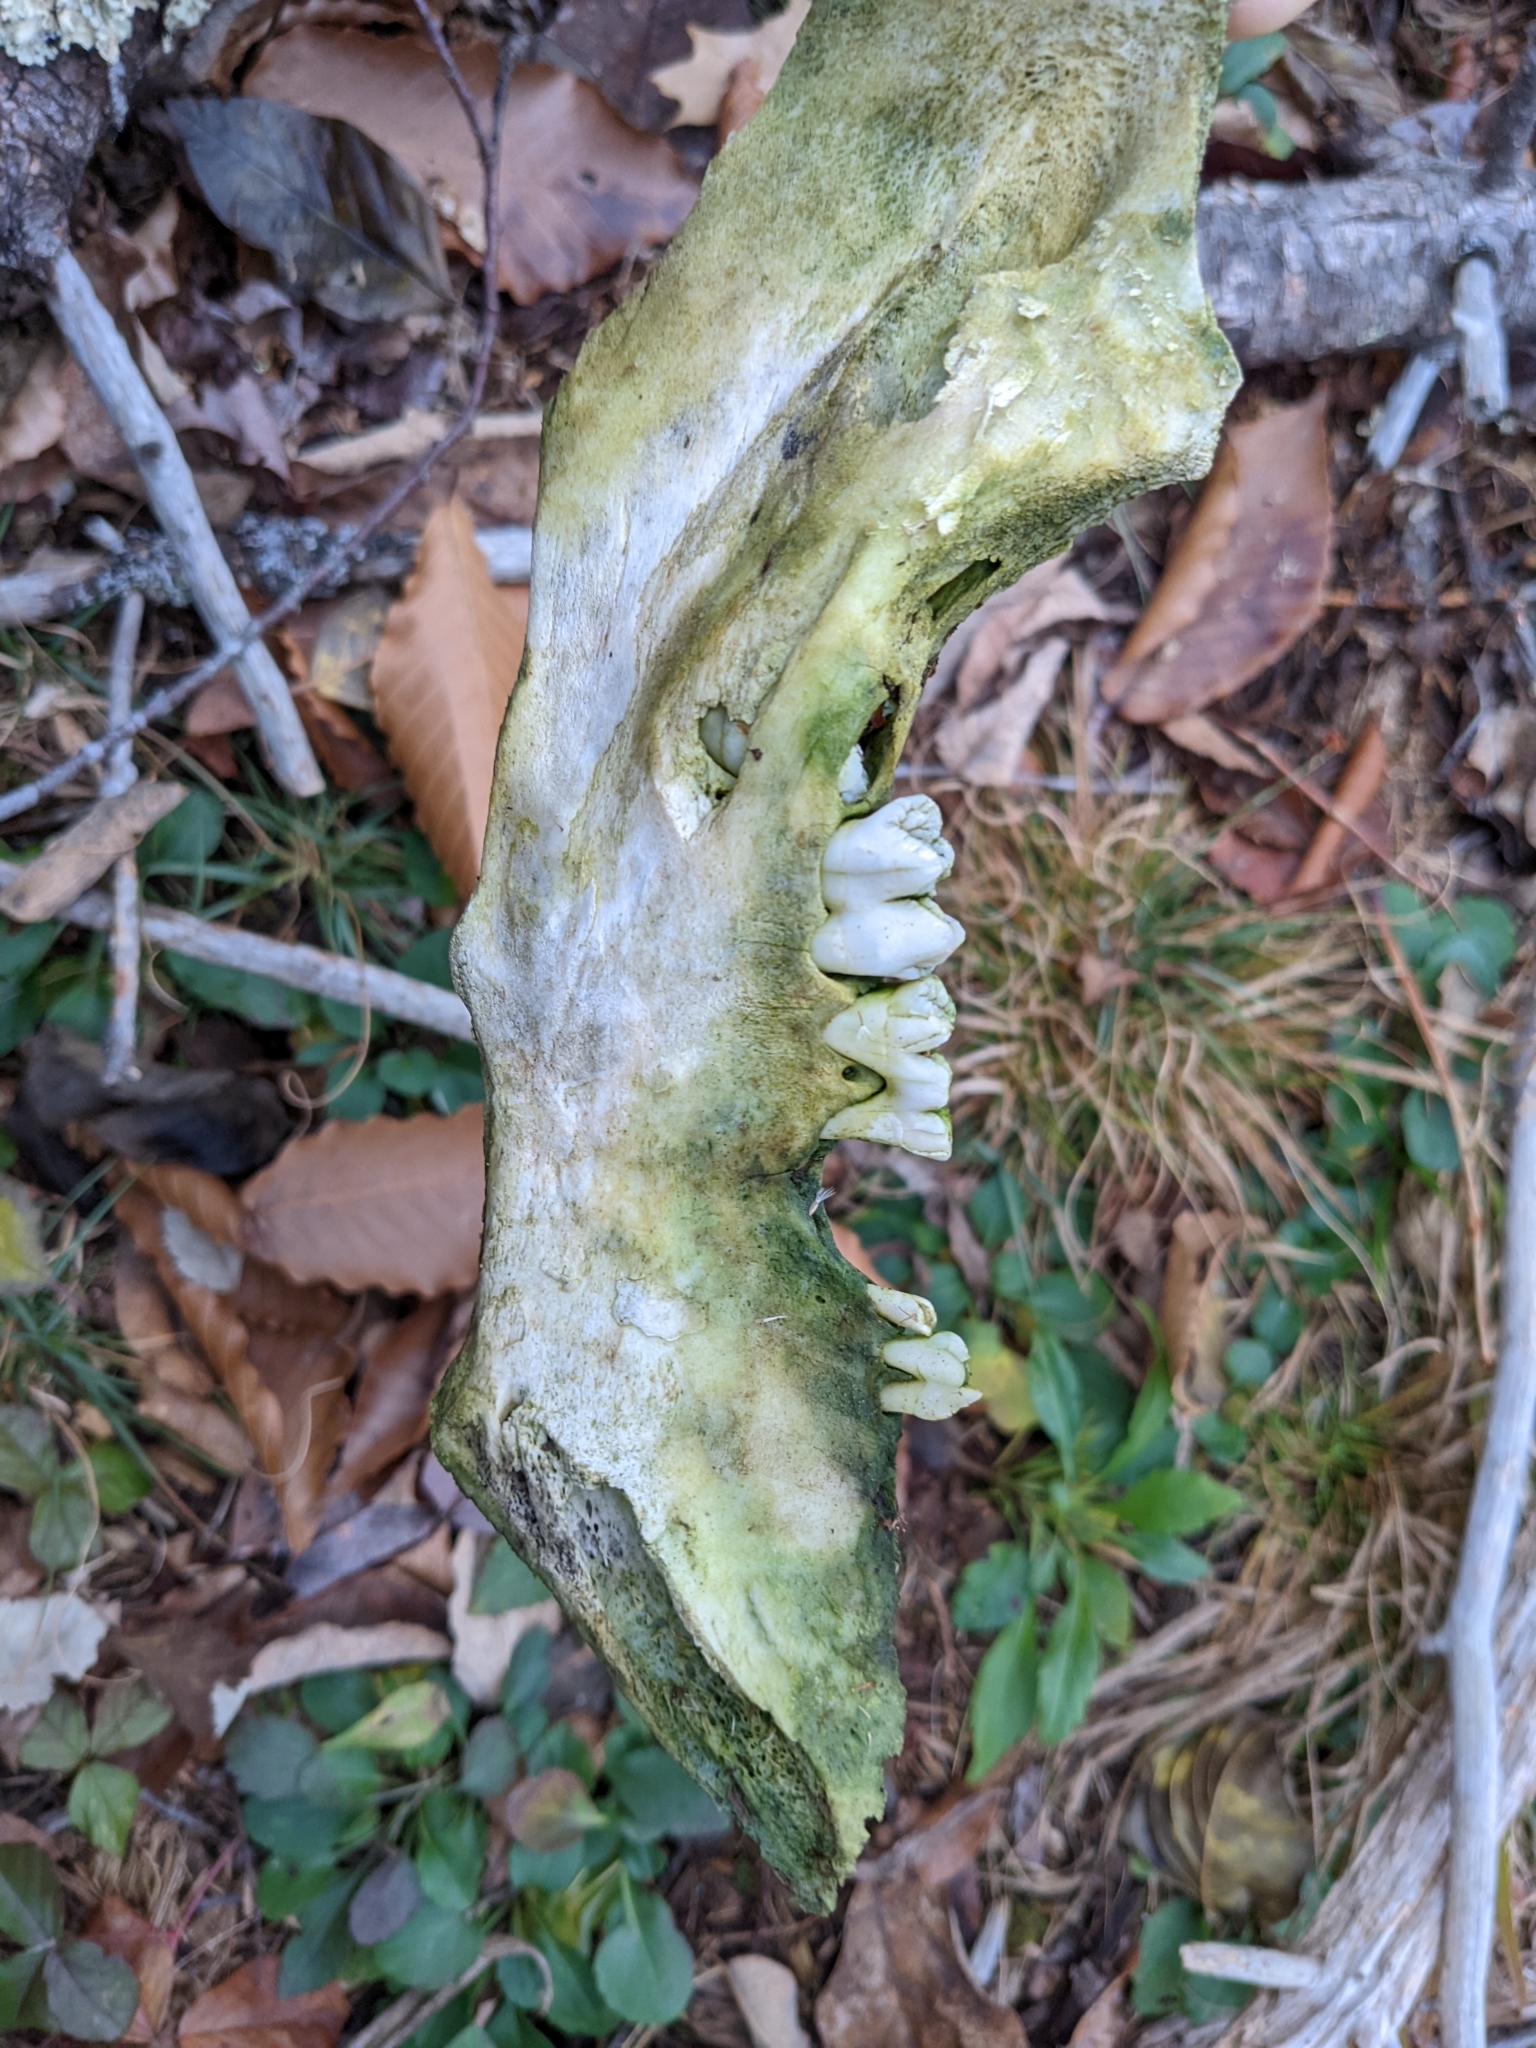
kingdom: Animalia
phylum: Chordata
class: Mammalia
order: Artiodactyla
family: Suidae
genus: Sus
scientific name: Sus scrofa
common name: Wild boar
